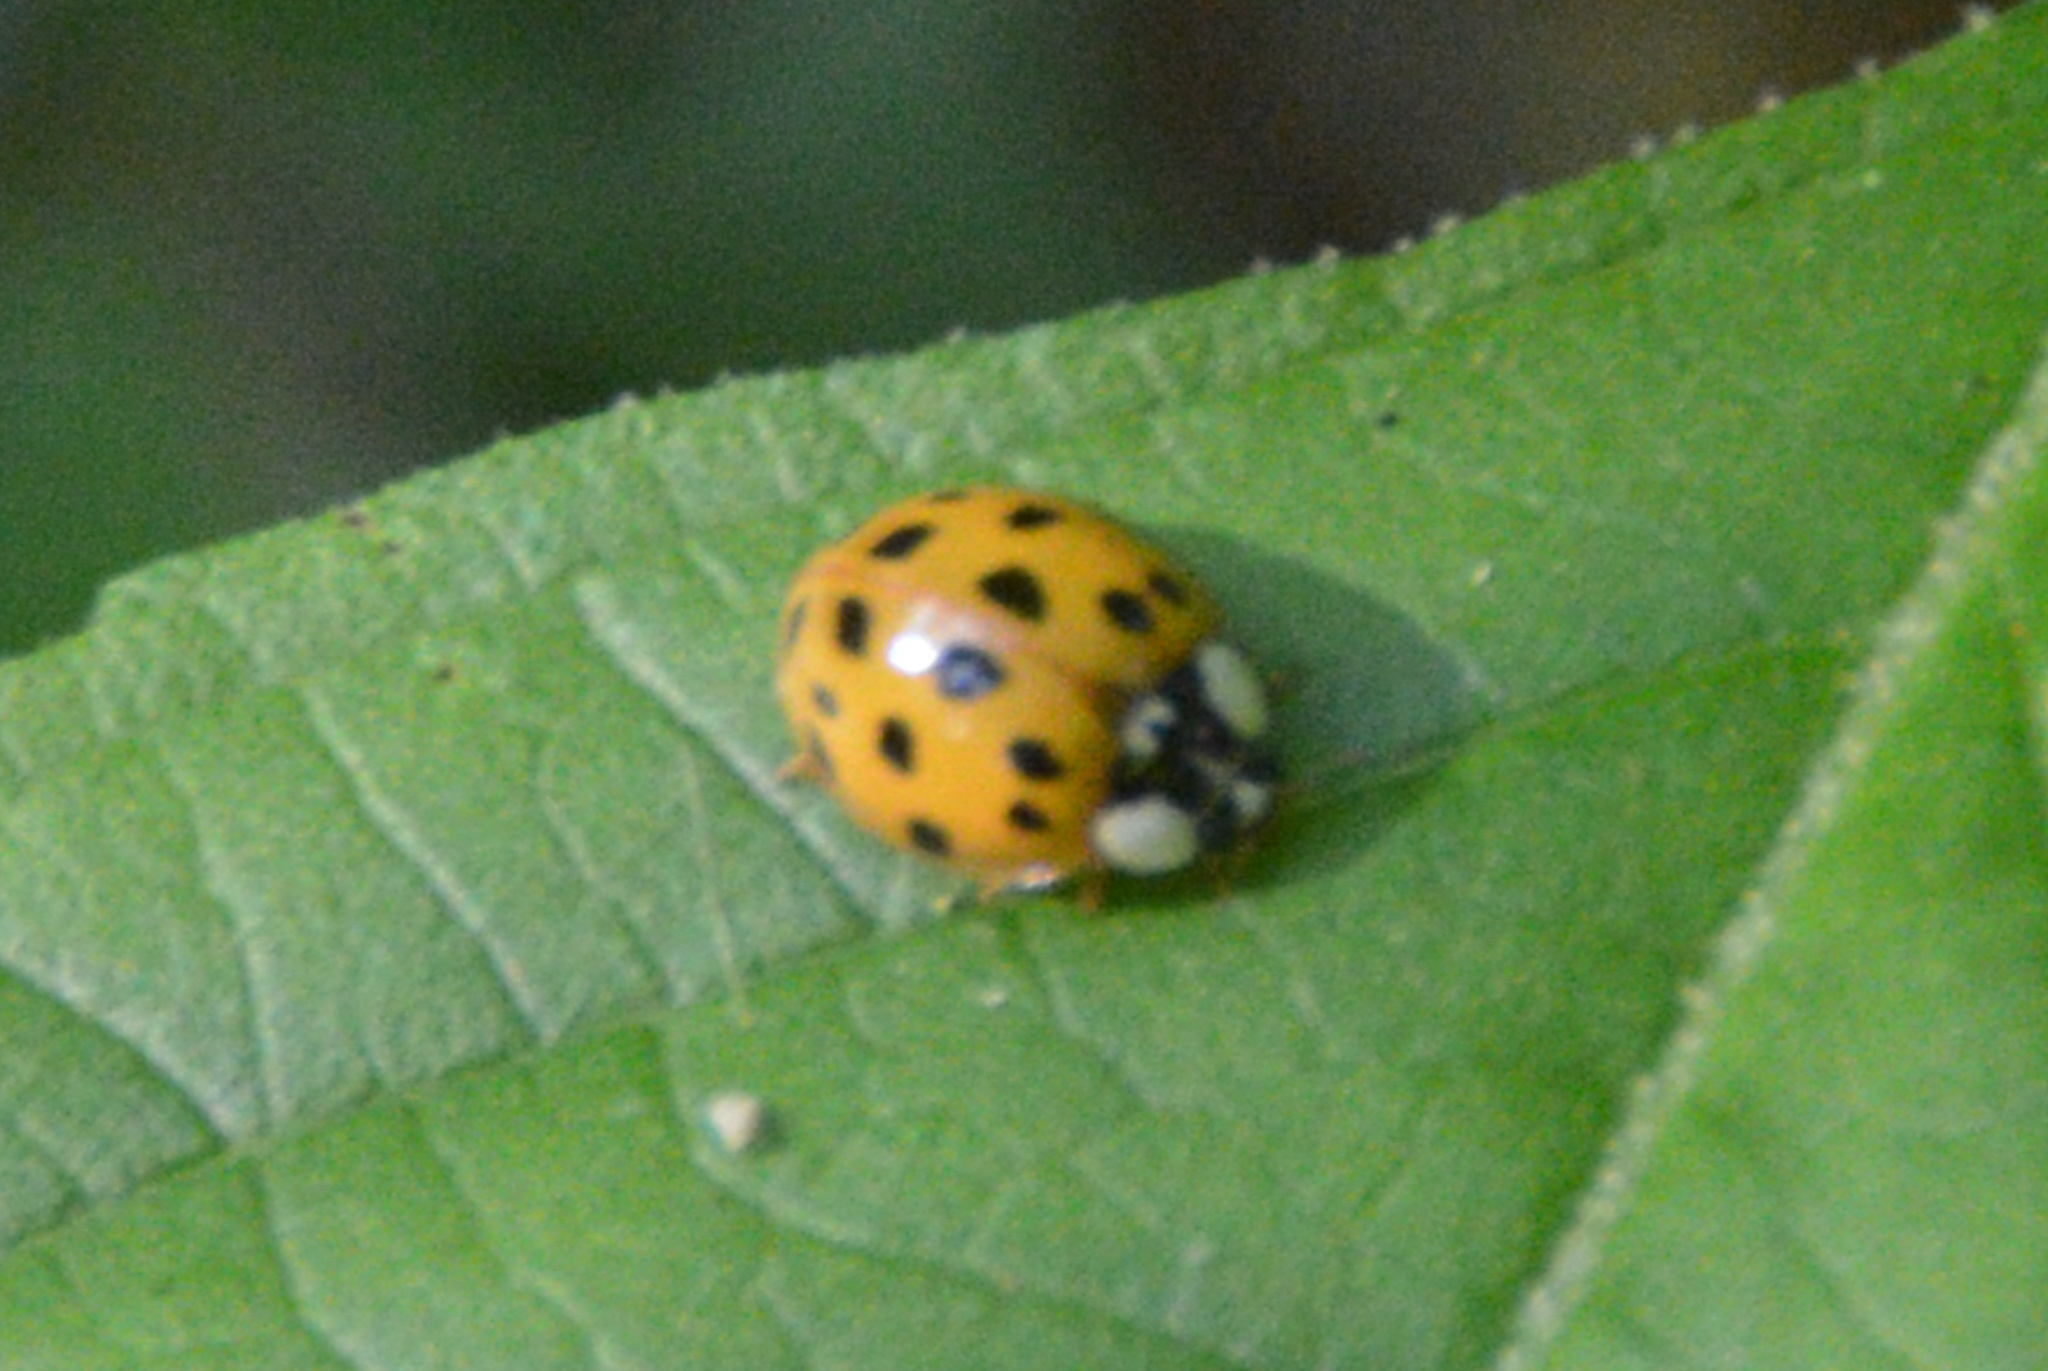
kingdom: Animalia
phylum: Arthropoda
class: Insecta
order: Coleoptera
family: Coccinellidae
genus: Harmonia
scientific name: Harmonia axyridis
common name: Harlequin ladybird
